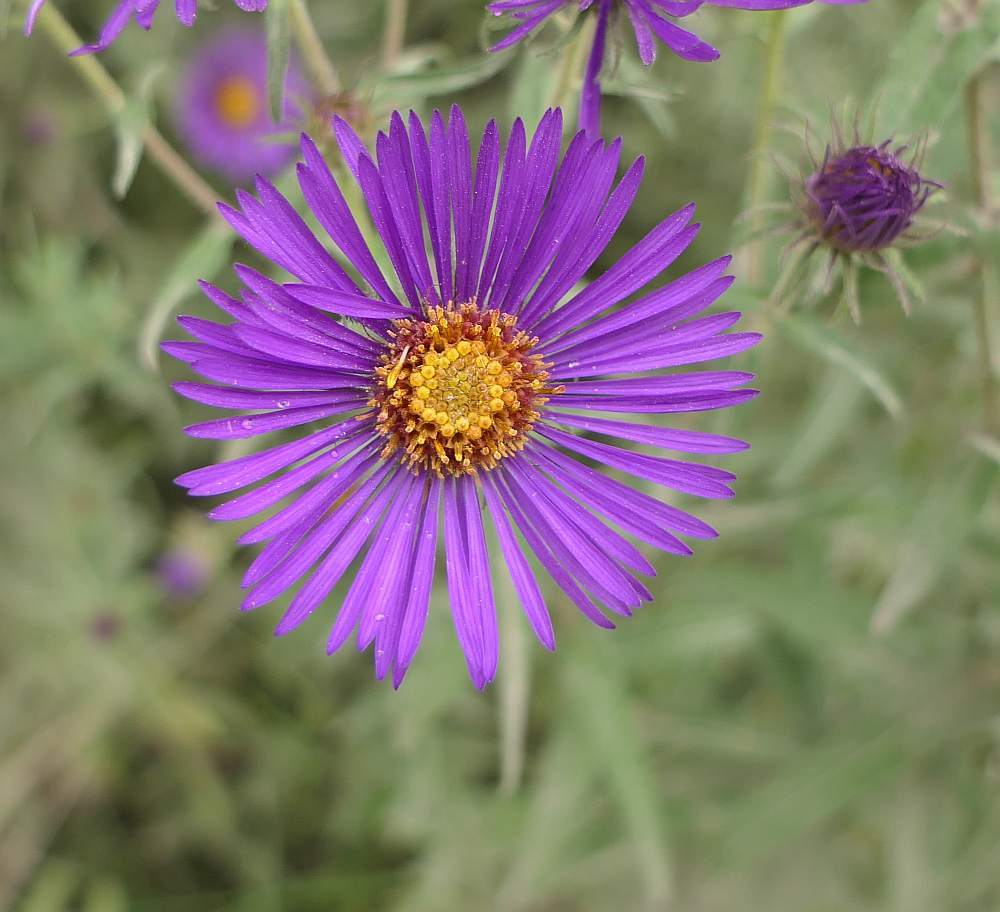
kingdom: Plantae
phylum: Tracheophyta
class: Magnoliopsida
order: Asterales
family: Asteraceae
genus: Symphyotrichum
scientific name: Symphyotrichum novae-angliae
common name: Michaelmas daisy
